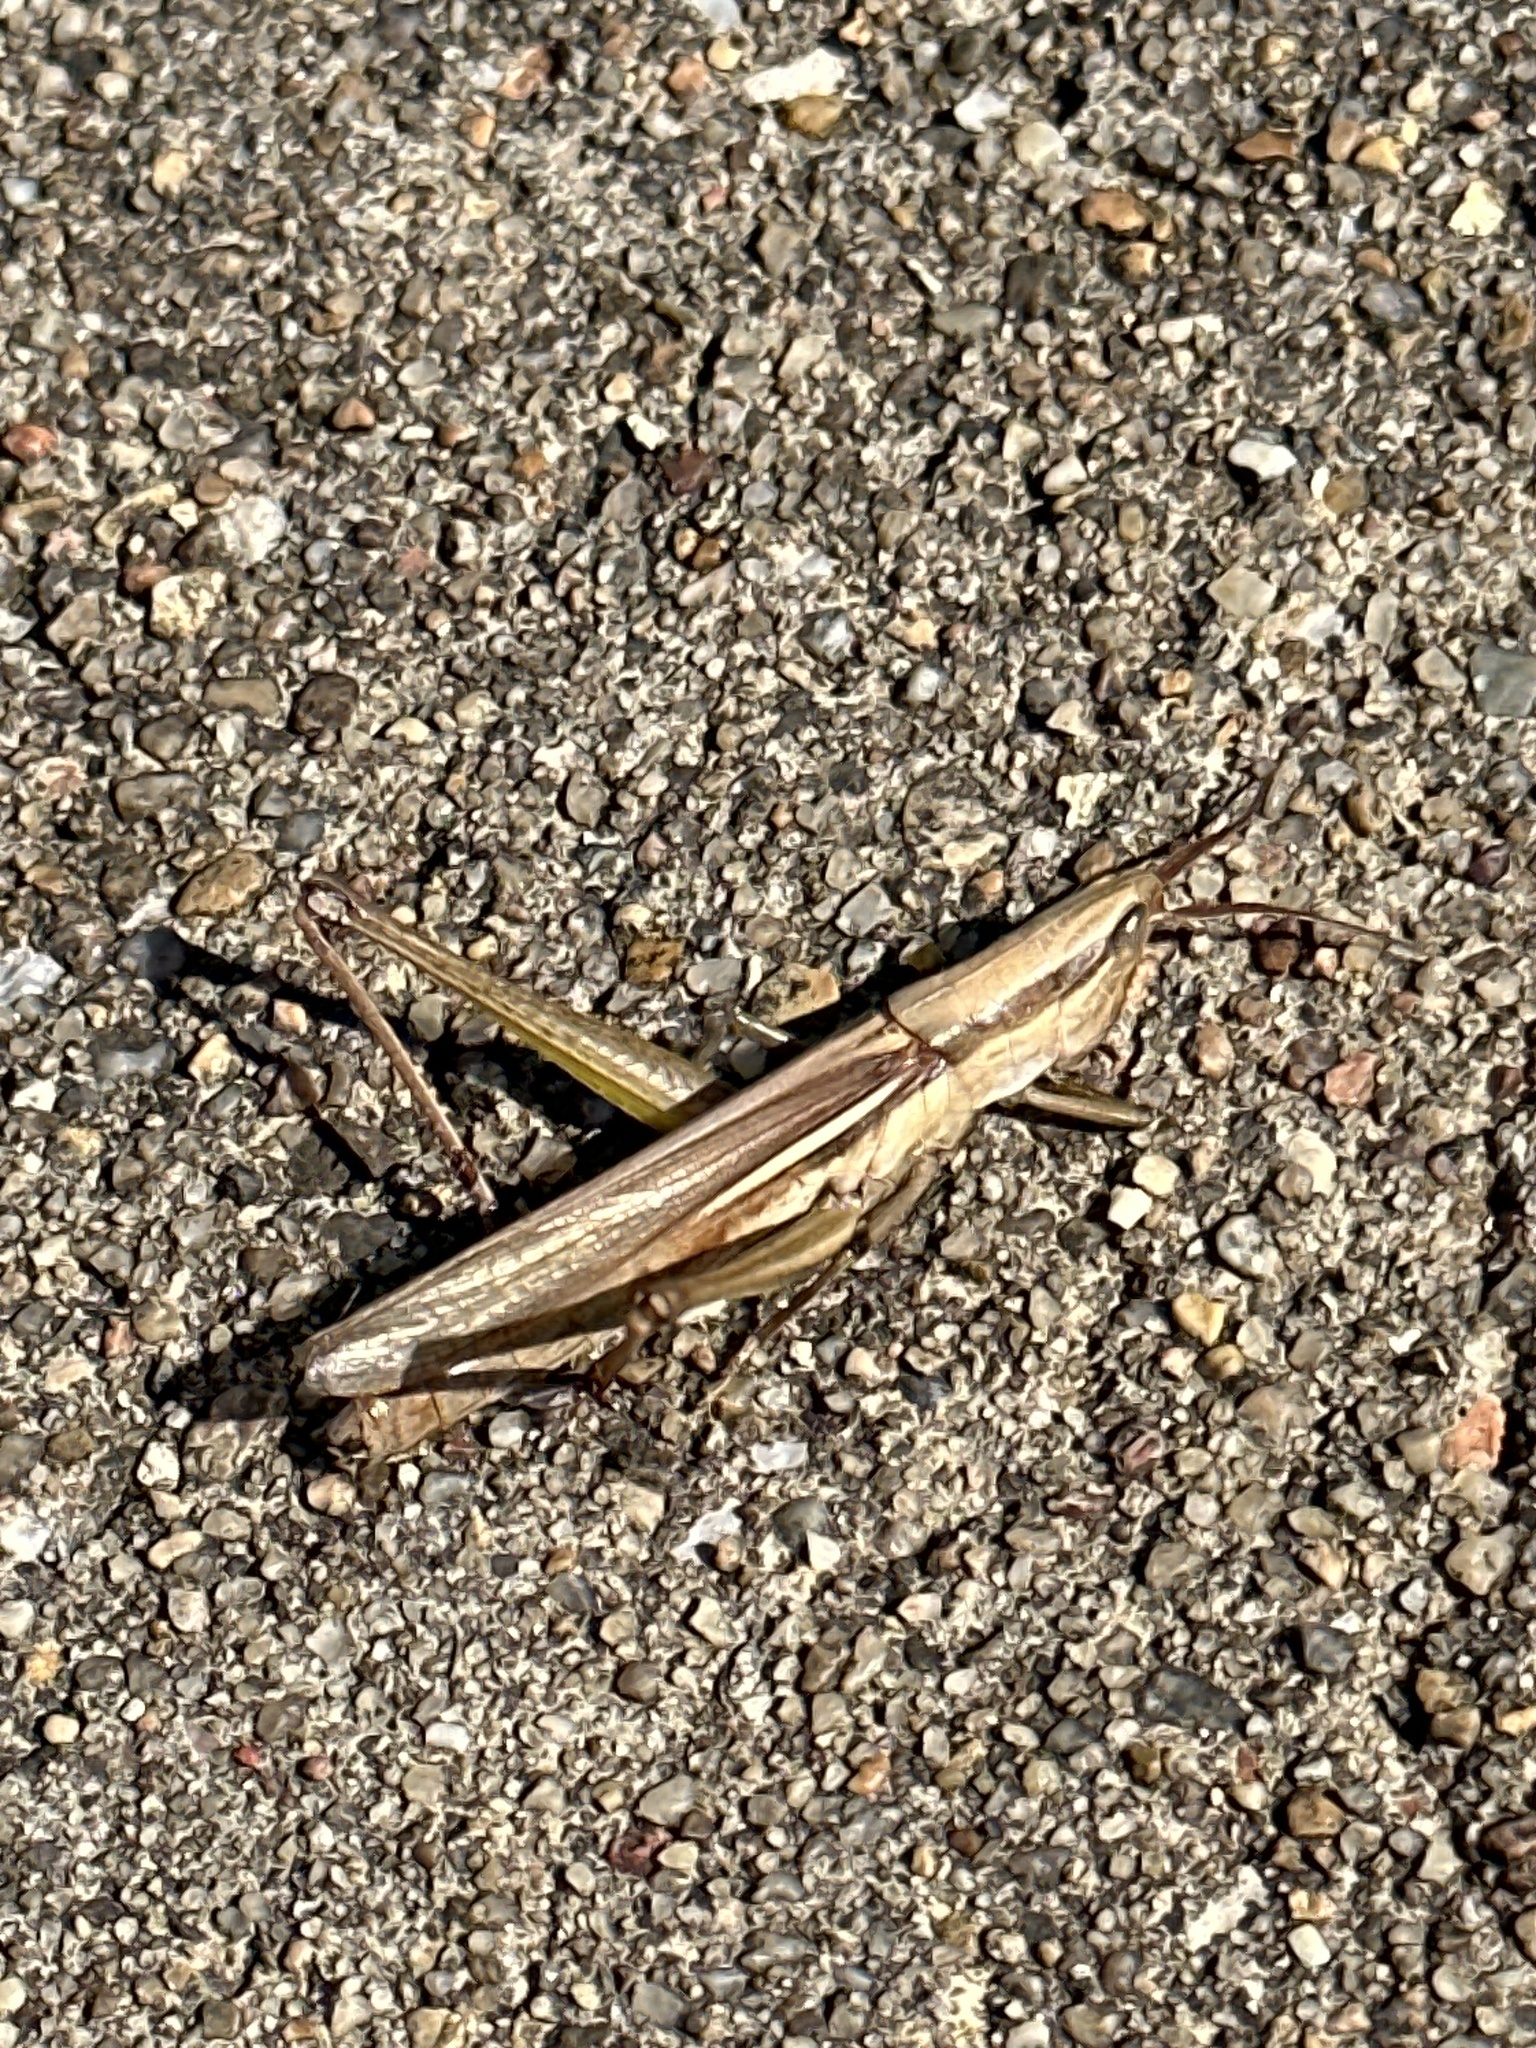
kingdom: Animalia
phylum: Arthropoda
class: Insecta
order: Orthoptera
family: Acrididae
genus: Mermiria
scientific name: Mermiria bivittata
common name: Two-striped mermiria grasshopper
